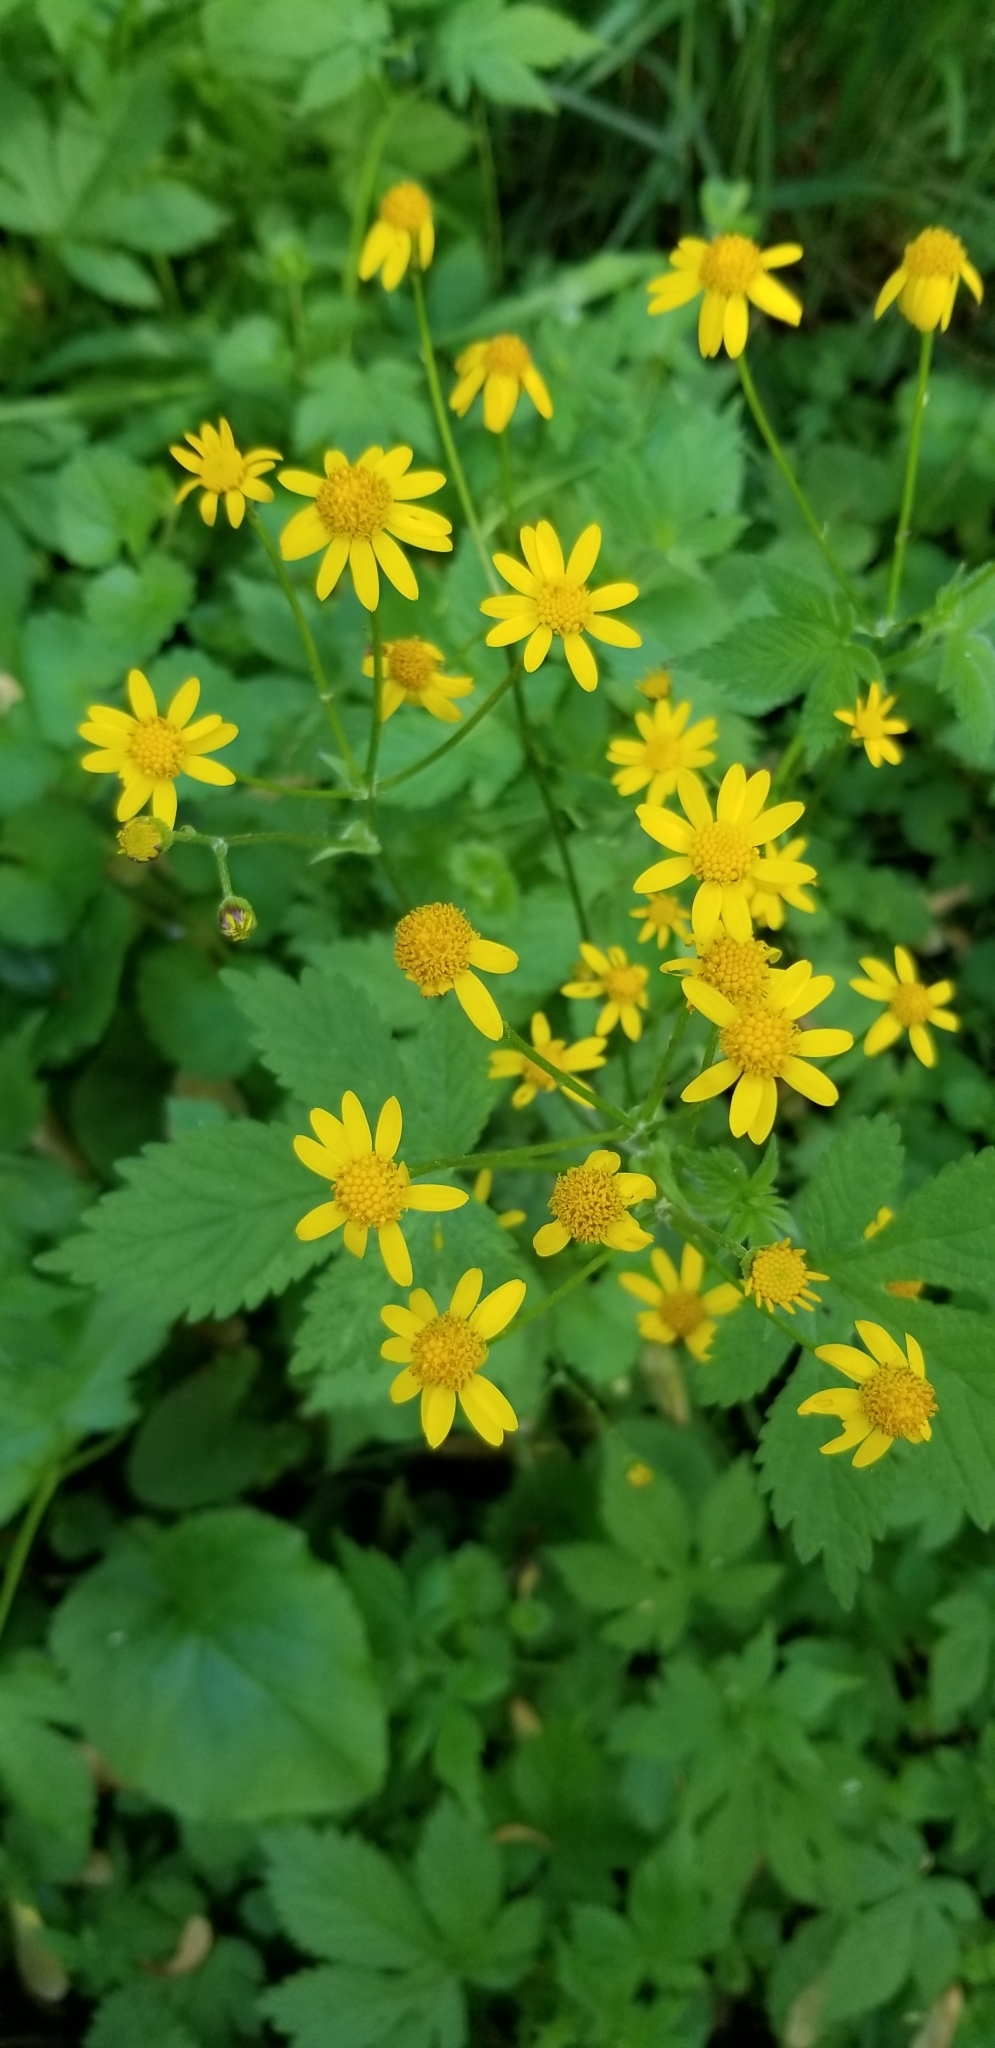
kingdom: Plantae
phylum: Tracheophyta
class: Magnoliopsida
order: Asterales
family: Asteraceae
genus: Packera
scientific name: Packera aurea
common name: Golden groundsel
